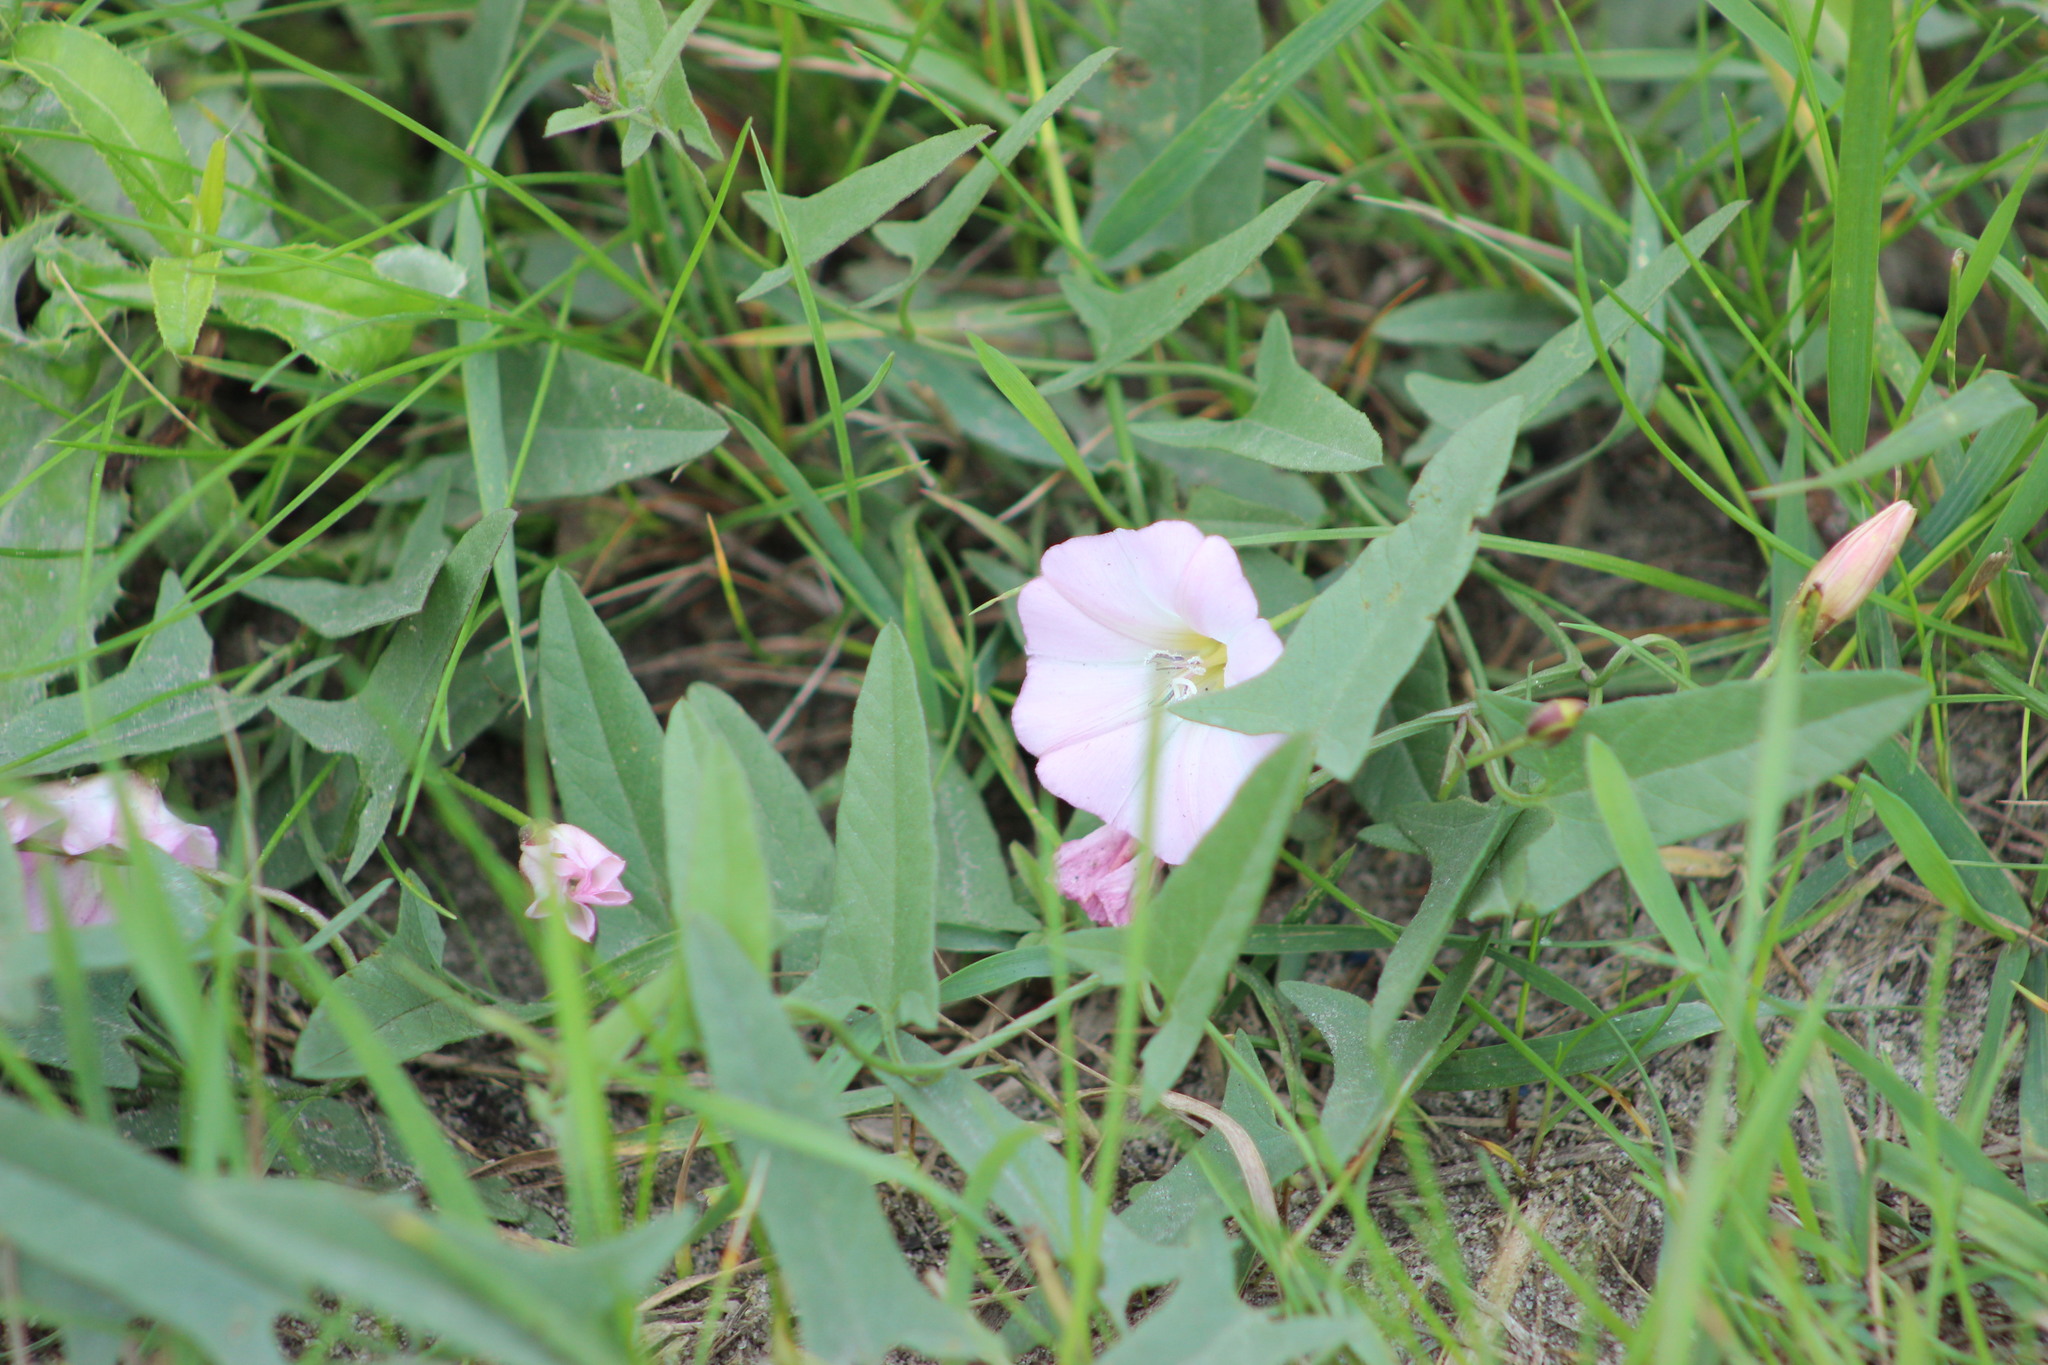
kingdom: Plantae
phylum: Tracheophyta
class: Magnoliopsida
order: Solanales
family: Convolvulaceae
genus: Convolvulus
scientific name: Convolvulus arvensis
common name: Field bindweed
